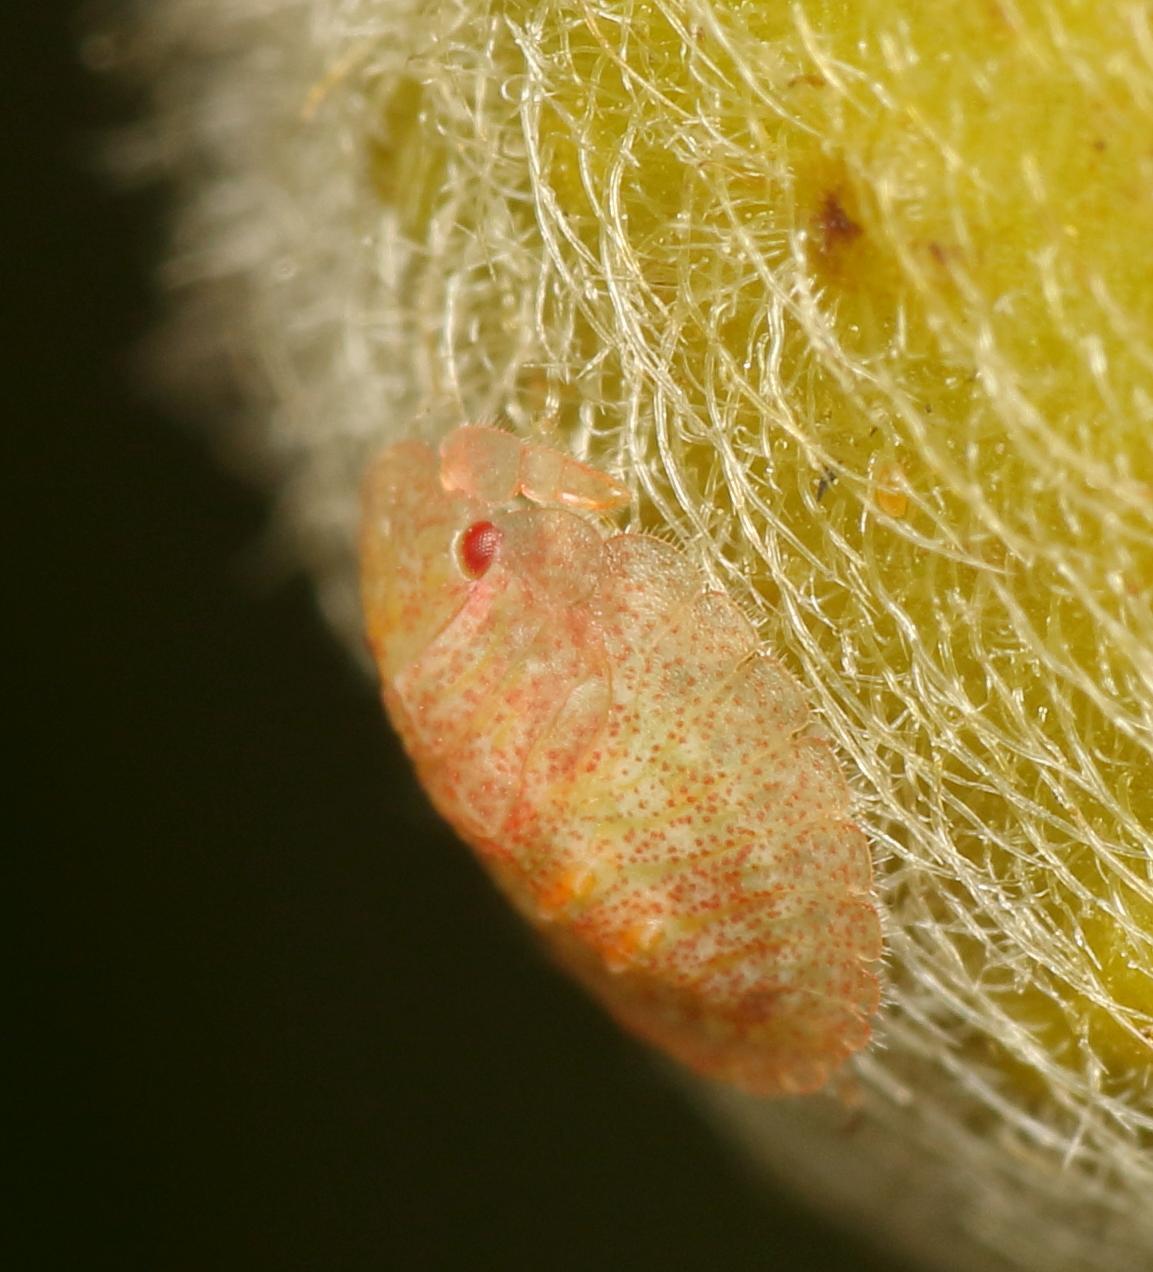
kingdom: Animalia
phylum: Arthropoda
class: Insecta
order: Hemiptera
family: Acanthosomatidae
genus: Uhlunga
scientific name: Uhlunga typica
